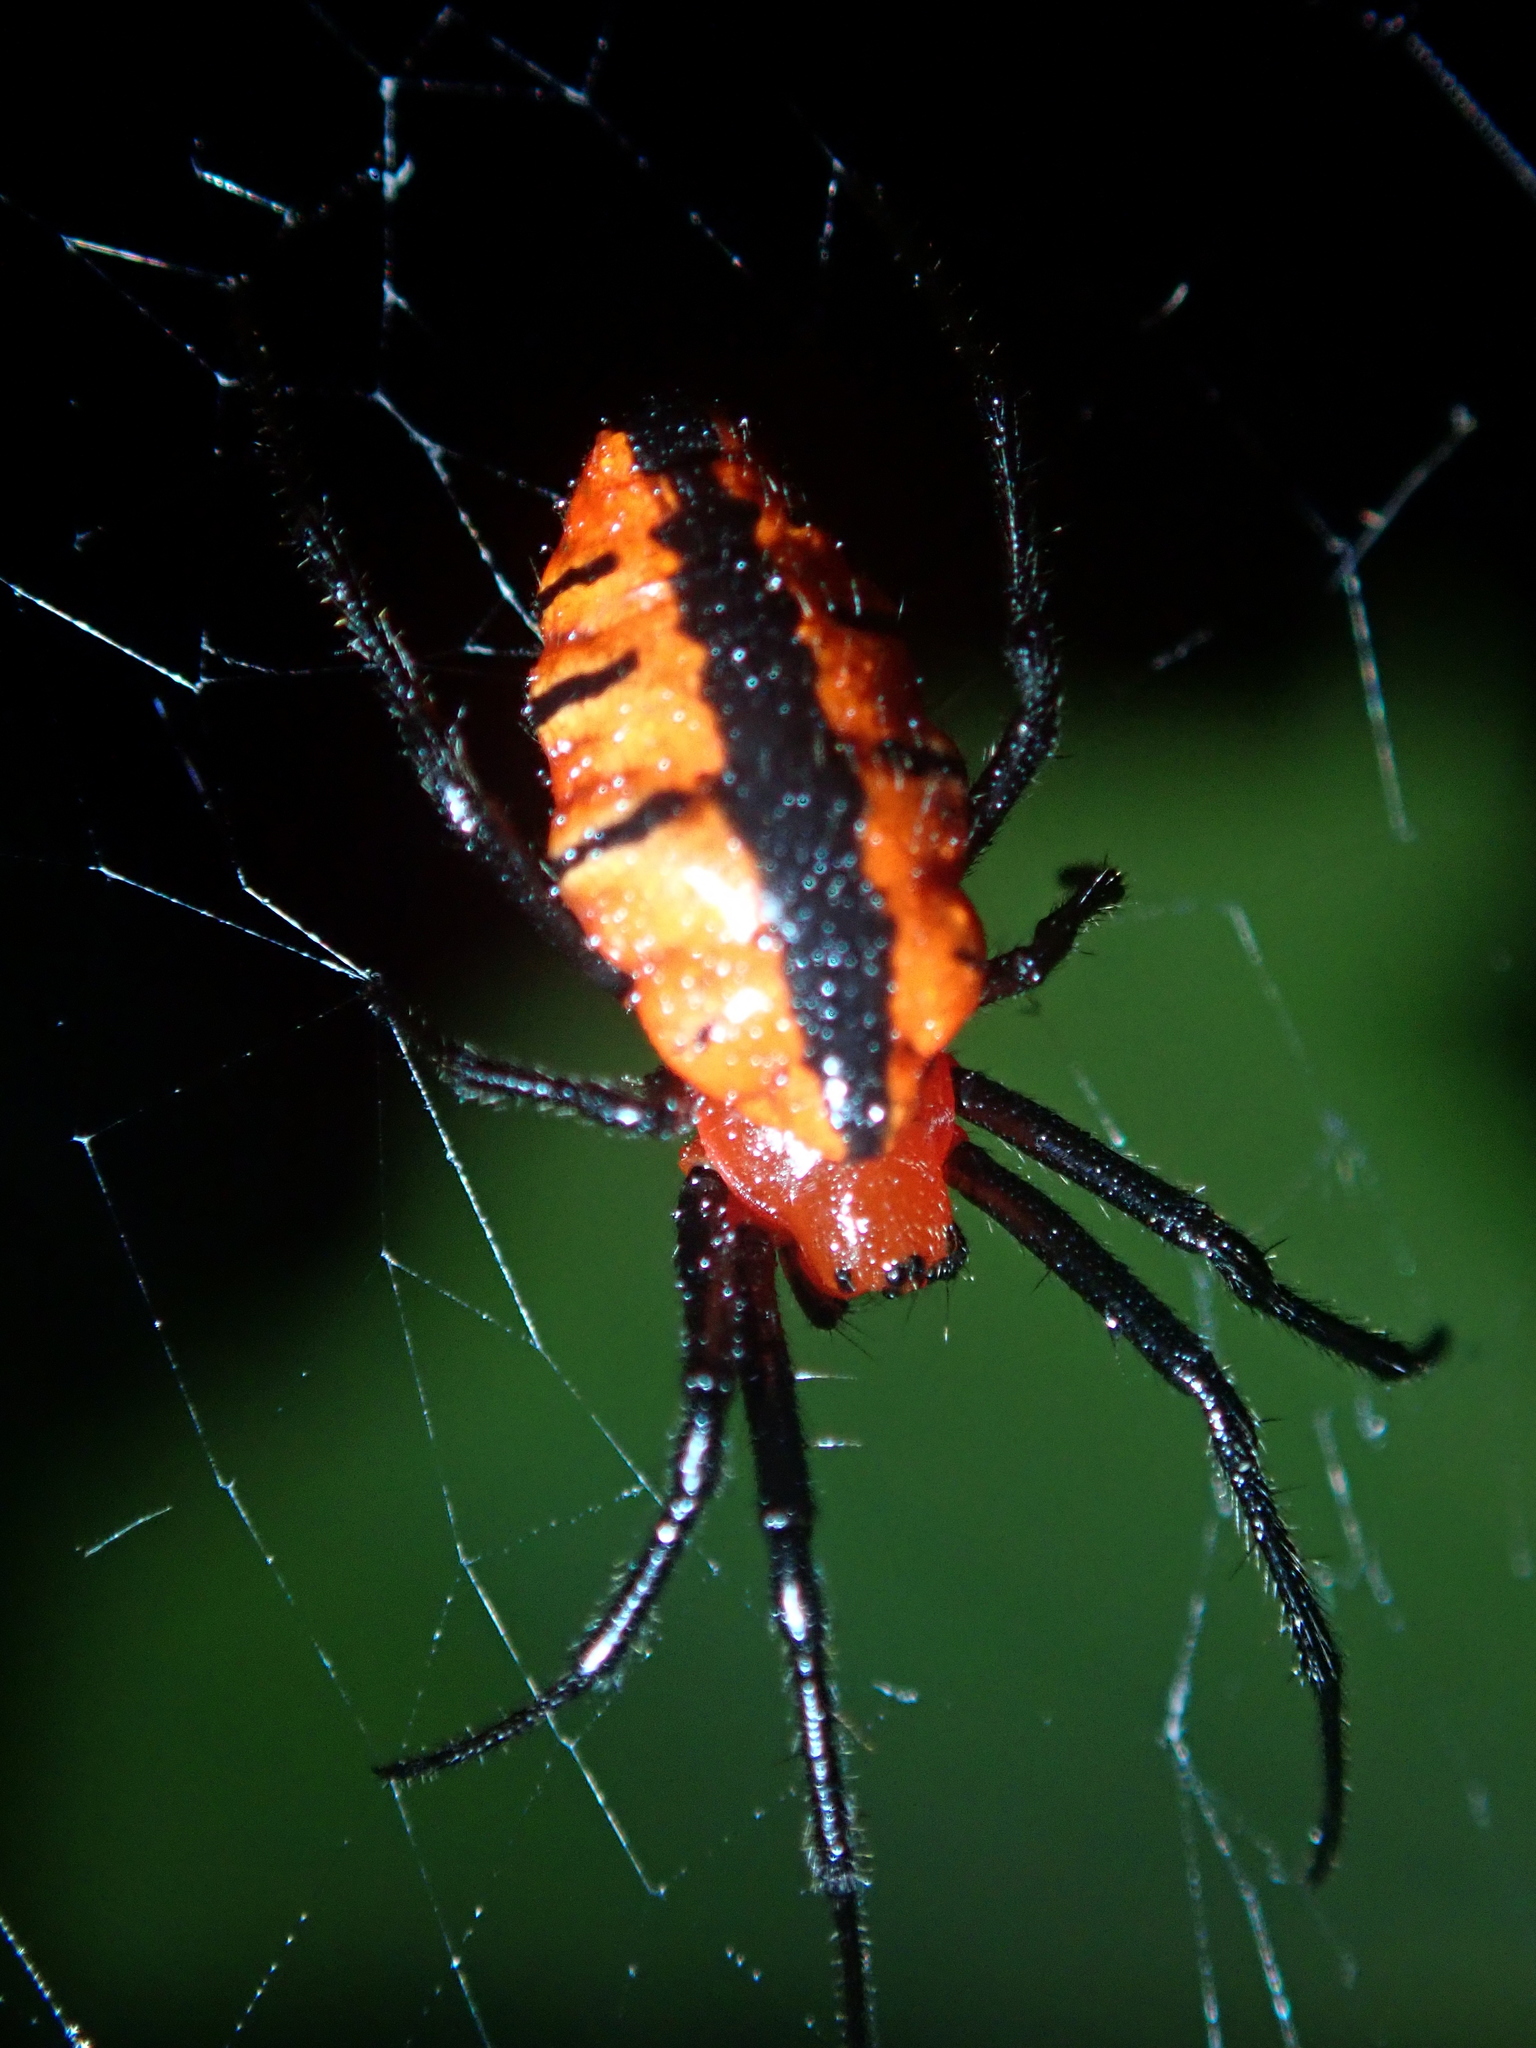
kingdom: Animalia
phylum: Arthropoda
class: Arachnida
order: Araneae
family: Araneidae
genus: Alpaida
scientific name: Alpaida latro
